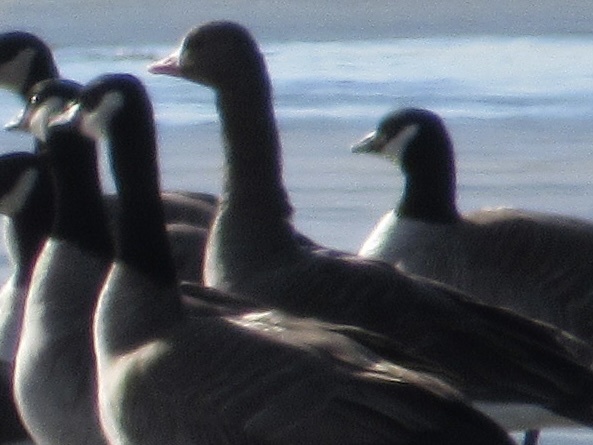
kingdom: Animalia
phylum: Chordata
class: Aves
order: Anseriformes
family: Anatidae
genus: Anser
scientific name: Anser albifrons
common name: Greater white-fronted goose
